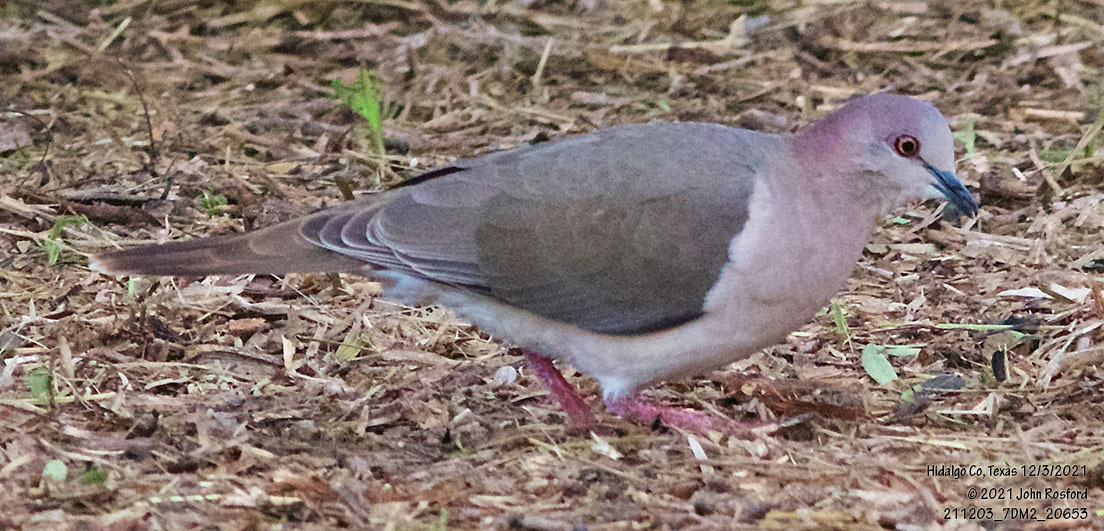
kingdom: Animalia
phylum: Chordata
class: Aves
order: Columbiformes
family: Columbidae
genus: Leptotila
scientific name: Leptotila verreauxi
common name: White-tipped dove
